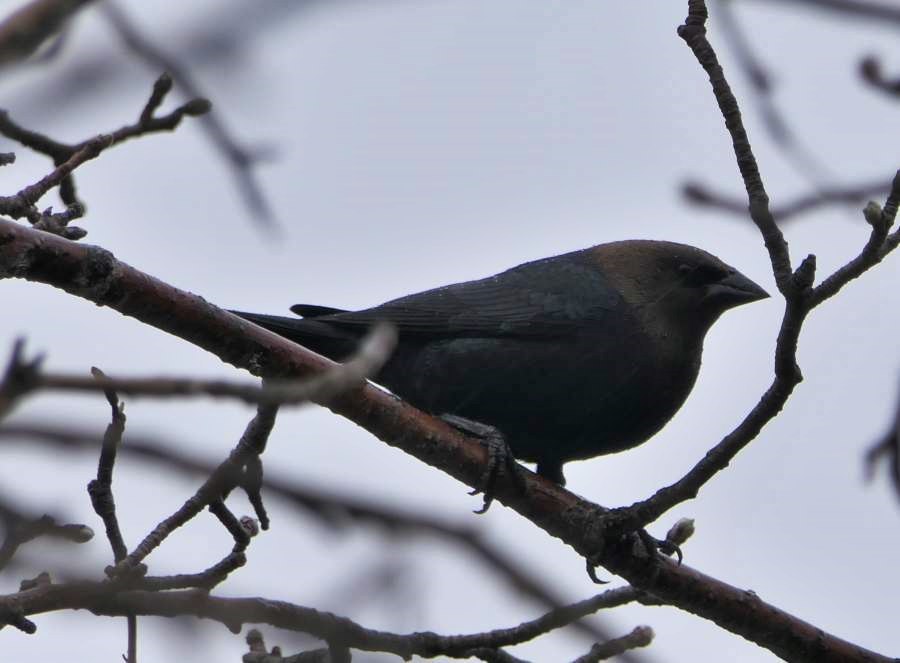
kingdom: Animalia
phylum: Chordata
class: Aves
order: Passeriformes
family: Icteridae
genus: Molothrus
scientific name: Molothrus ater
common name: Brown-headed cowbird
